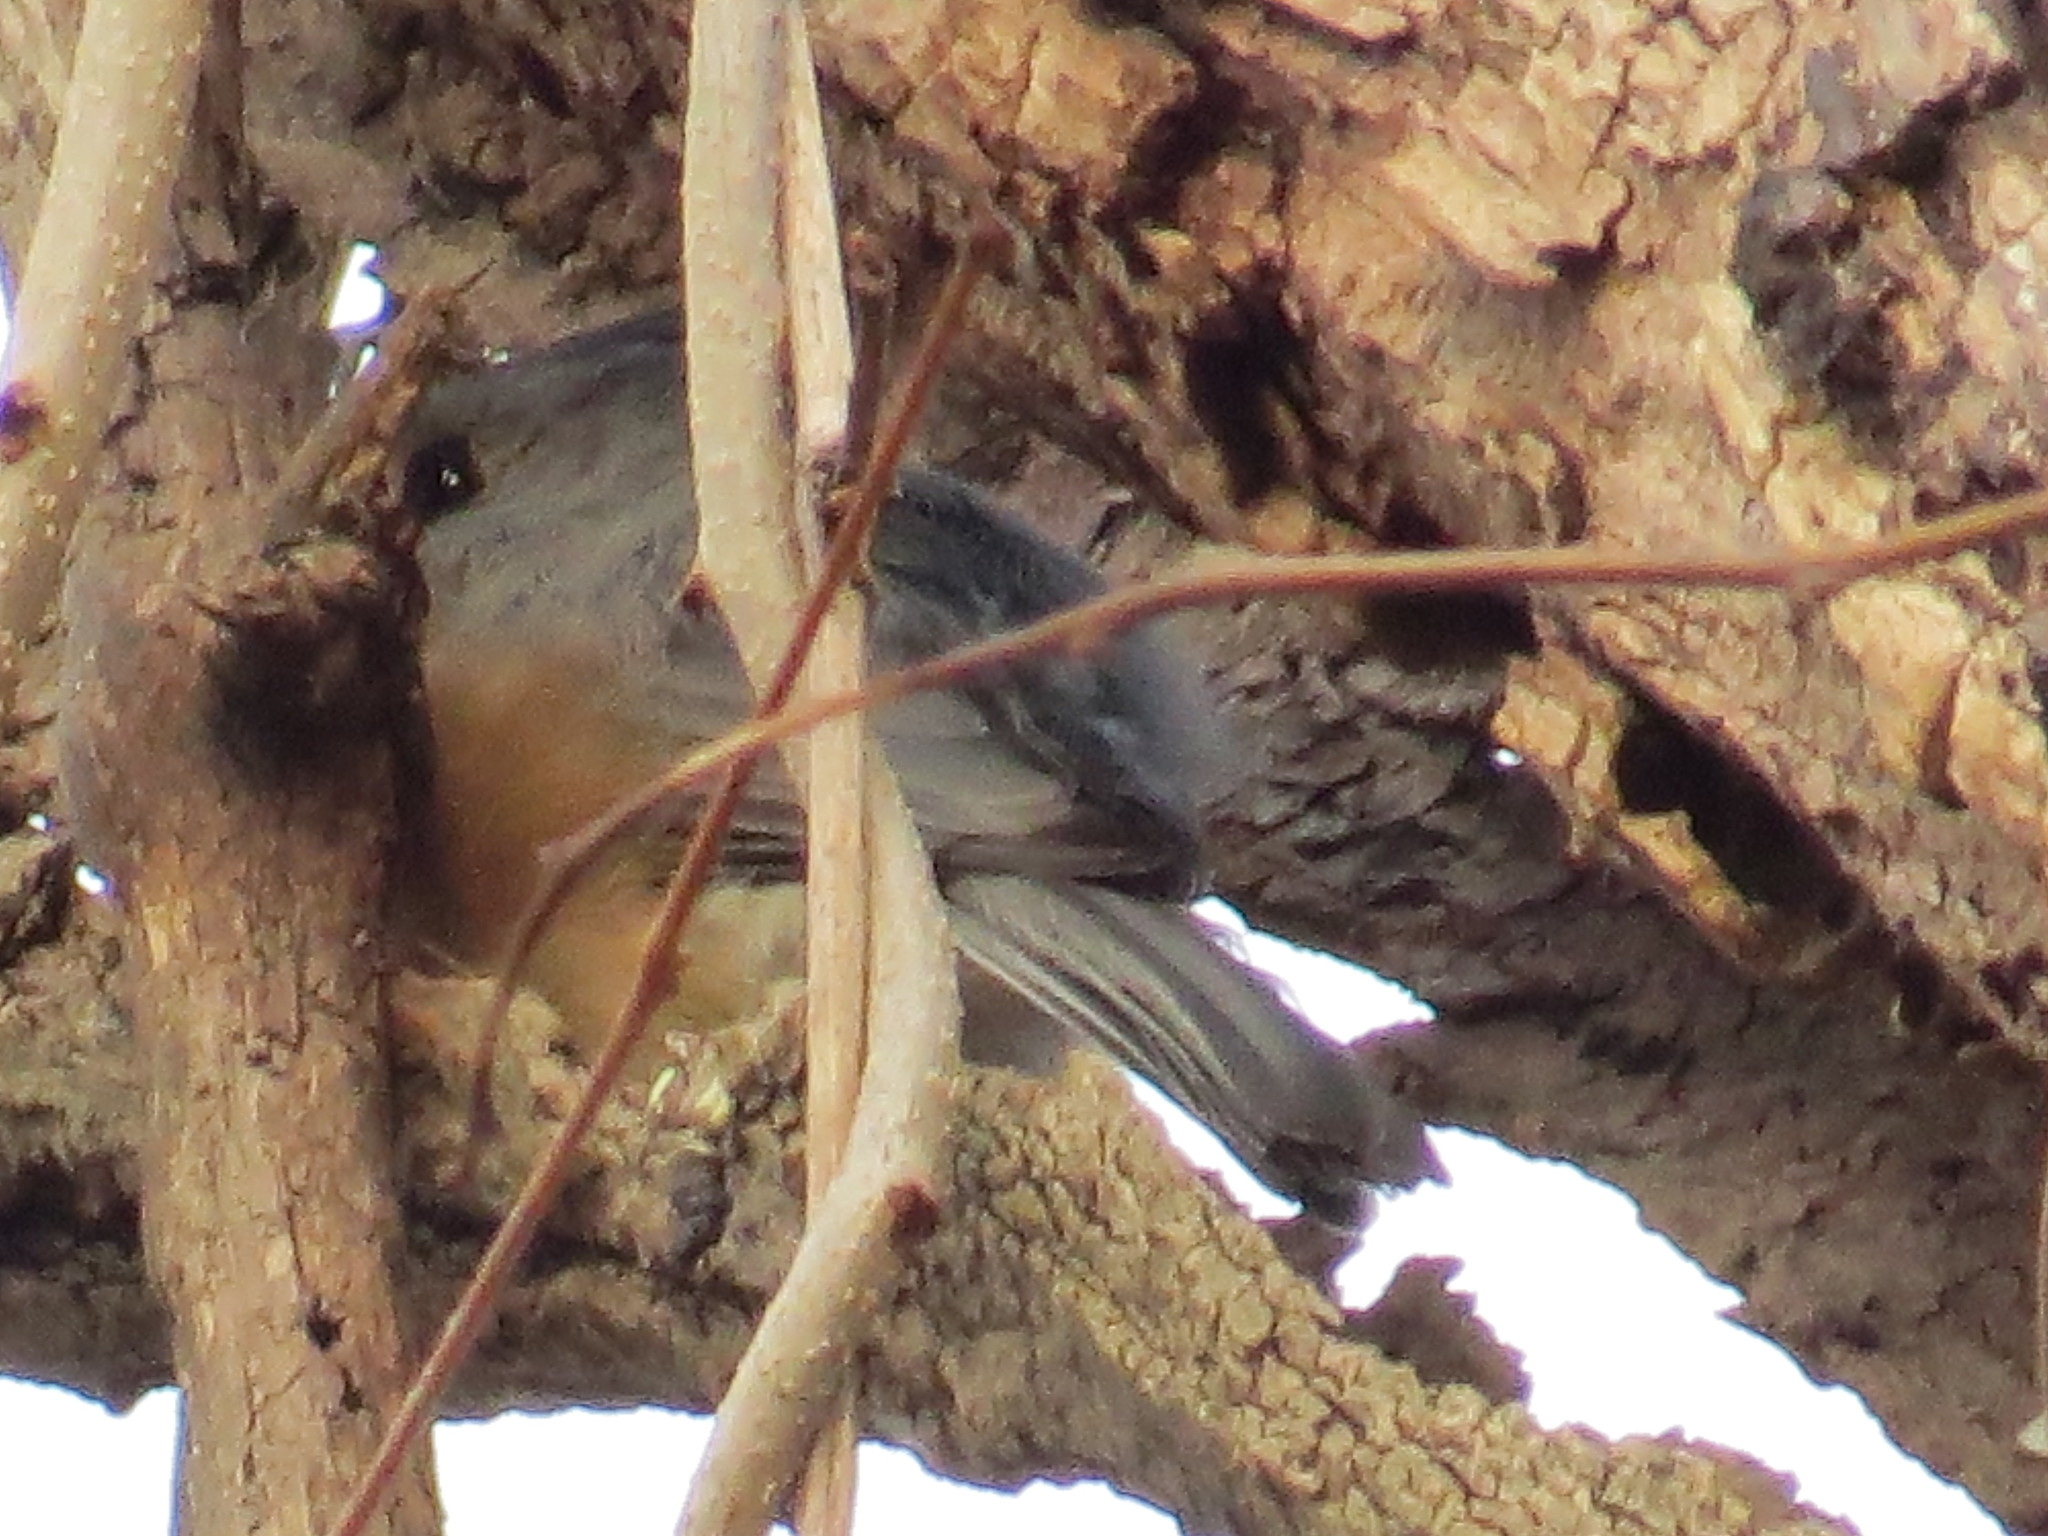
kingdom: Animalia
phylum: Chordata
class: Aves
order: Passeriformes
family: Paridae
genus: Baeolophus
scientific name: Baeolophus bicolor
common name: Tufted titmouse
